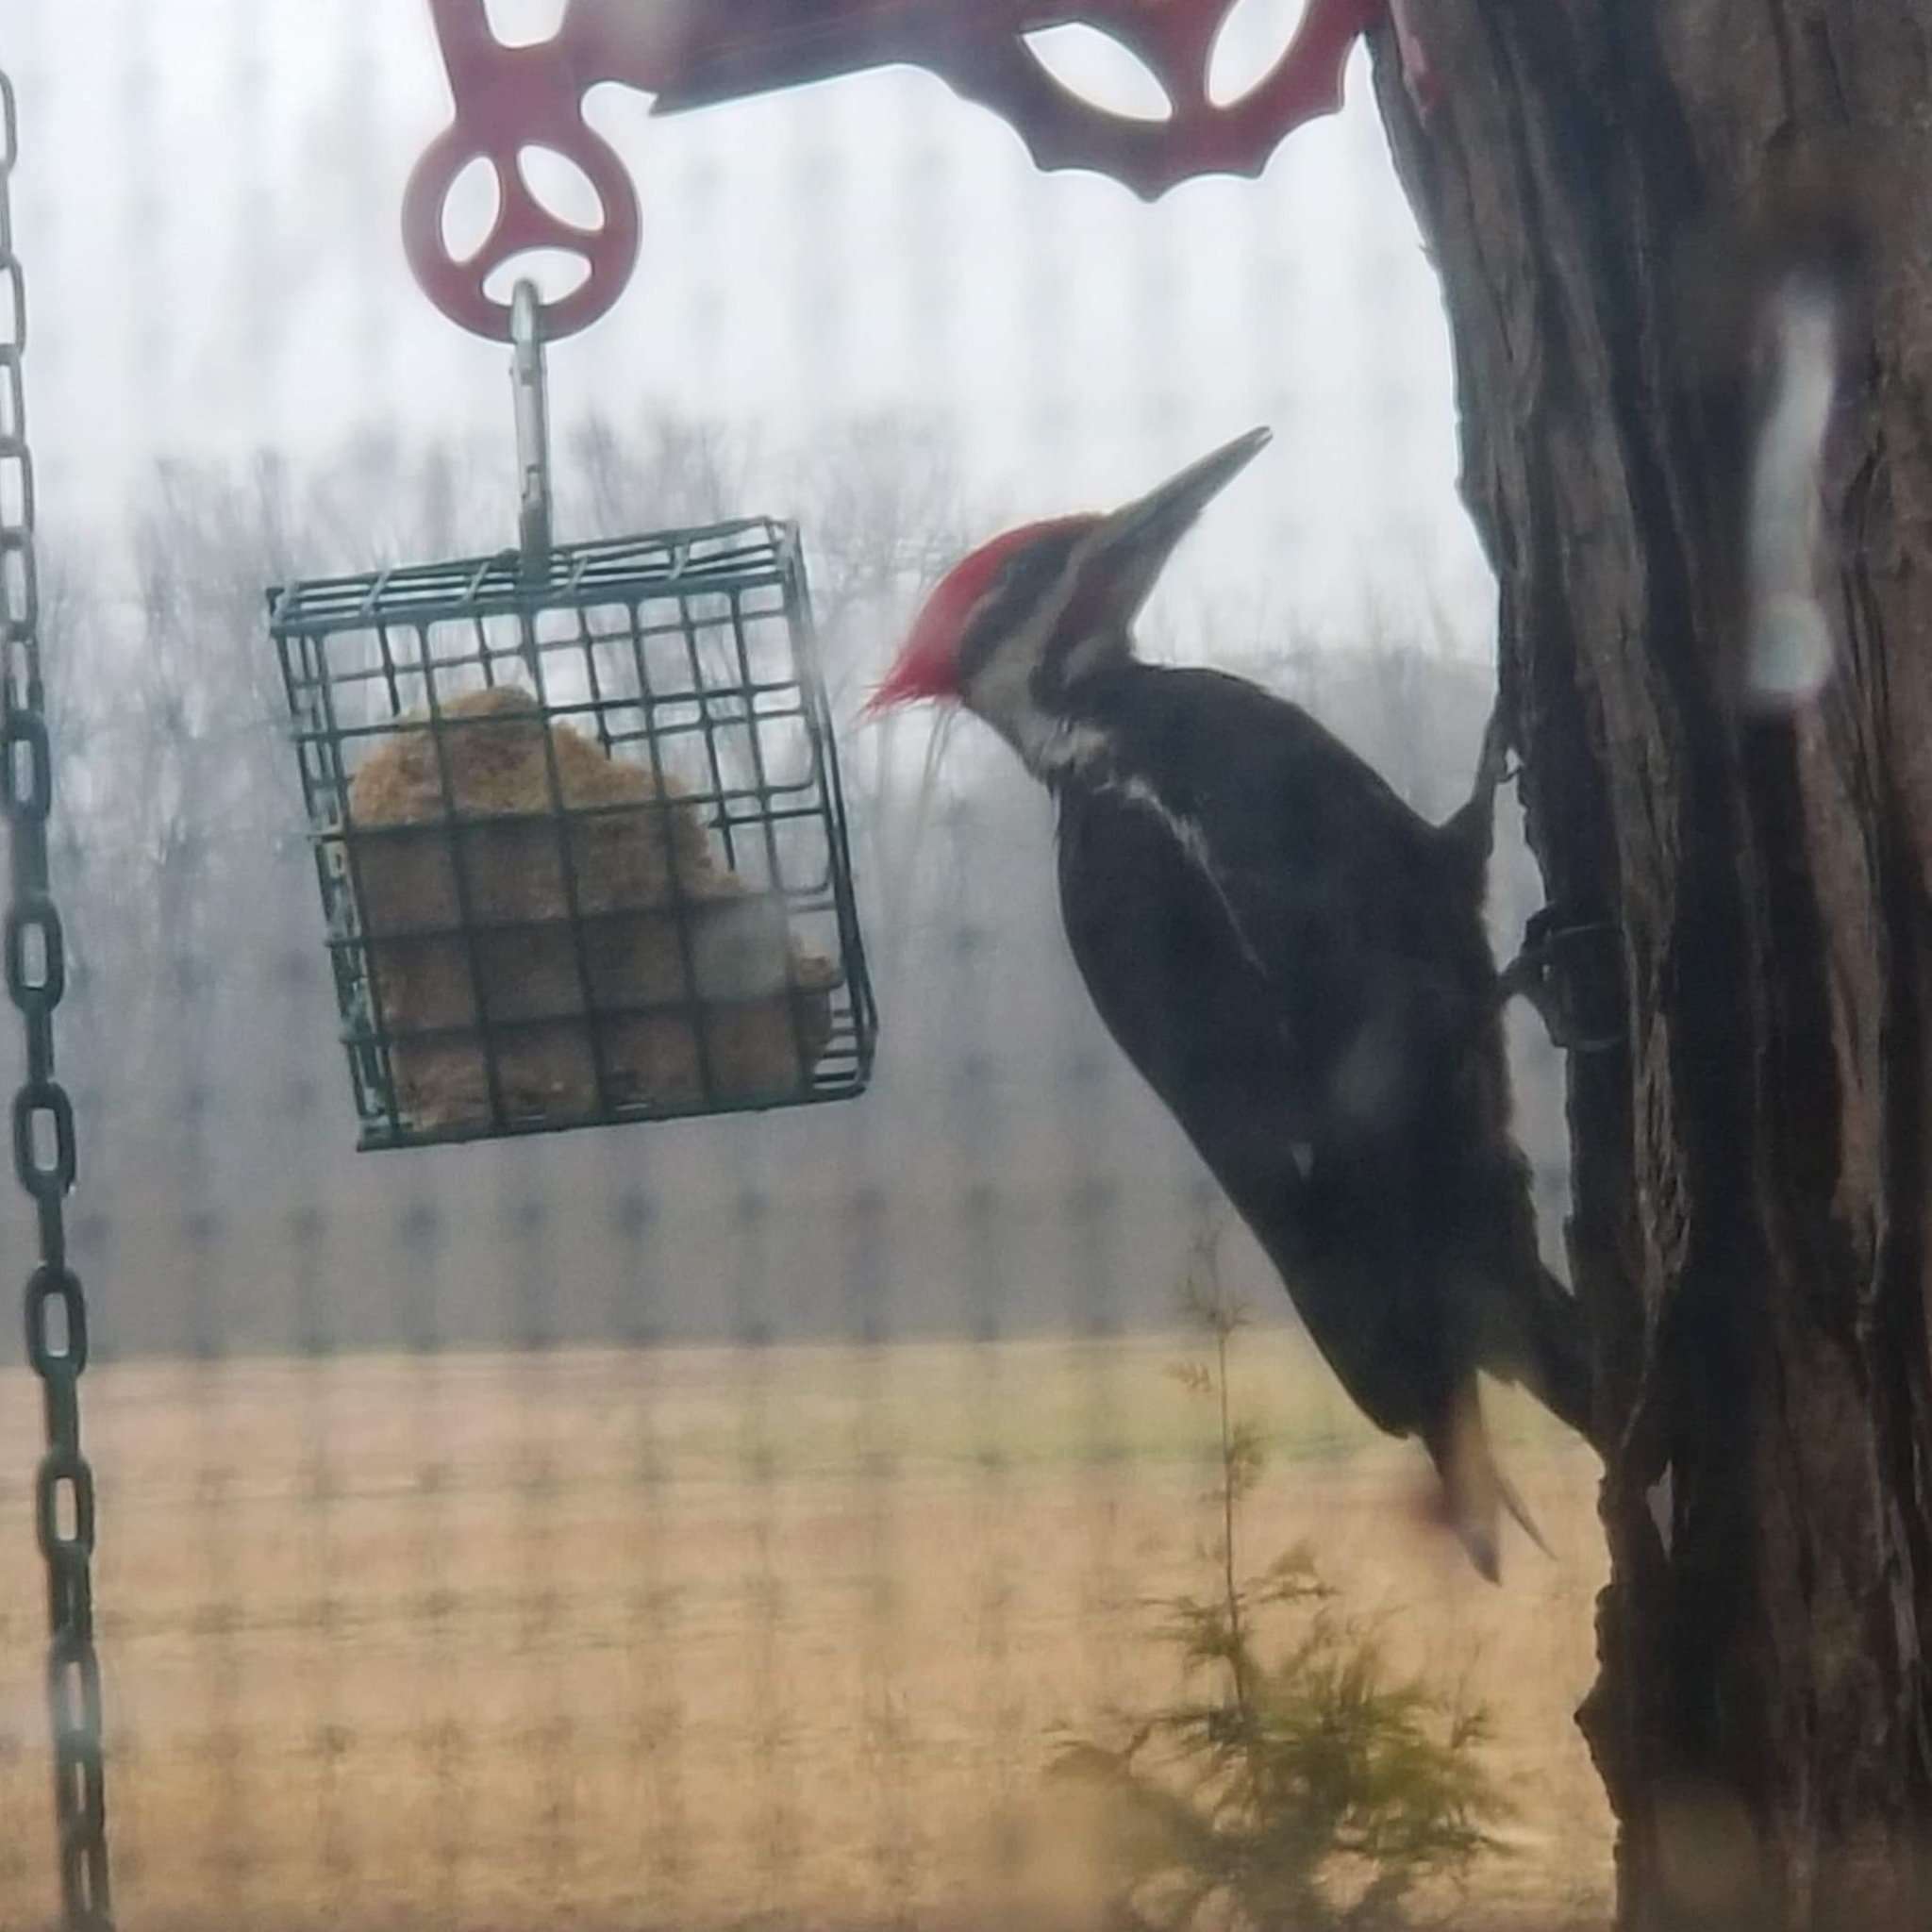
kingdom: Animalia
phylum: Chordata
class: Aves
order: Piciformes
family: Picidae
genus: Dryocopus
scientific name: Dryocopus pileatus
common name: Pileated woodpecker
